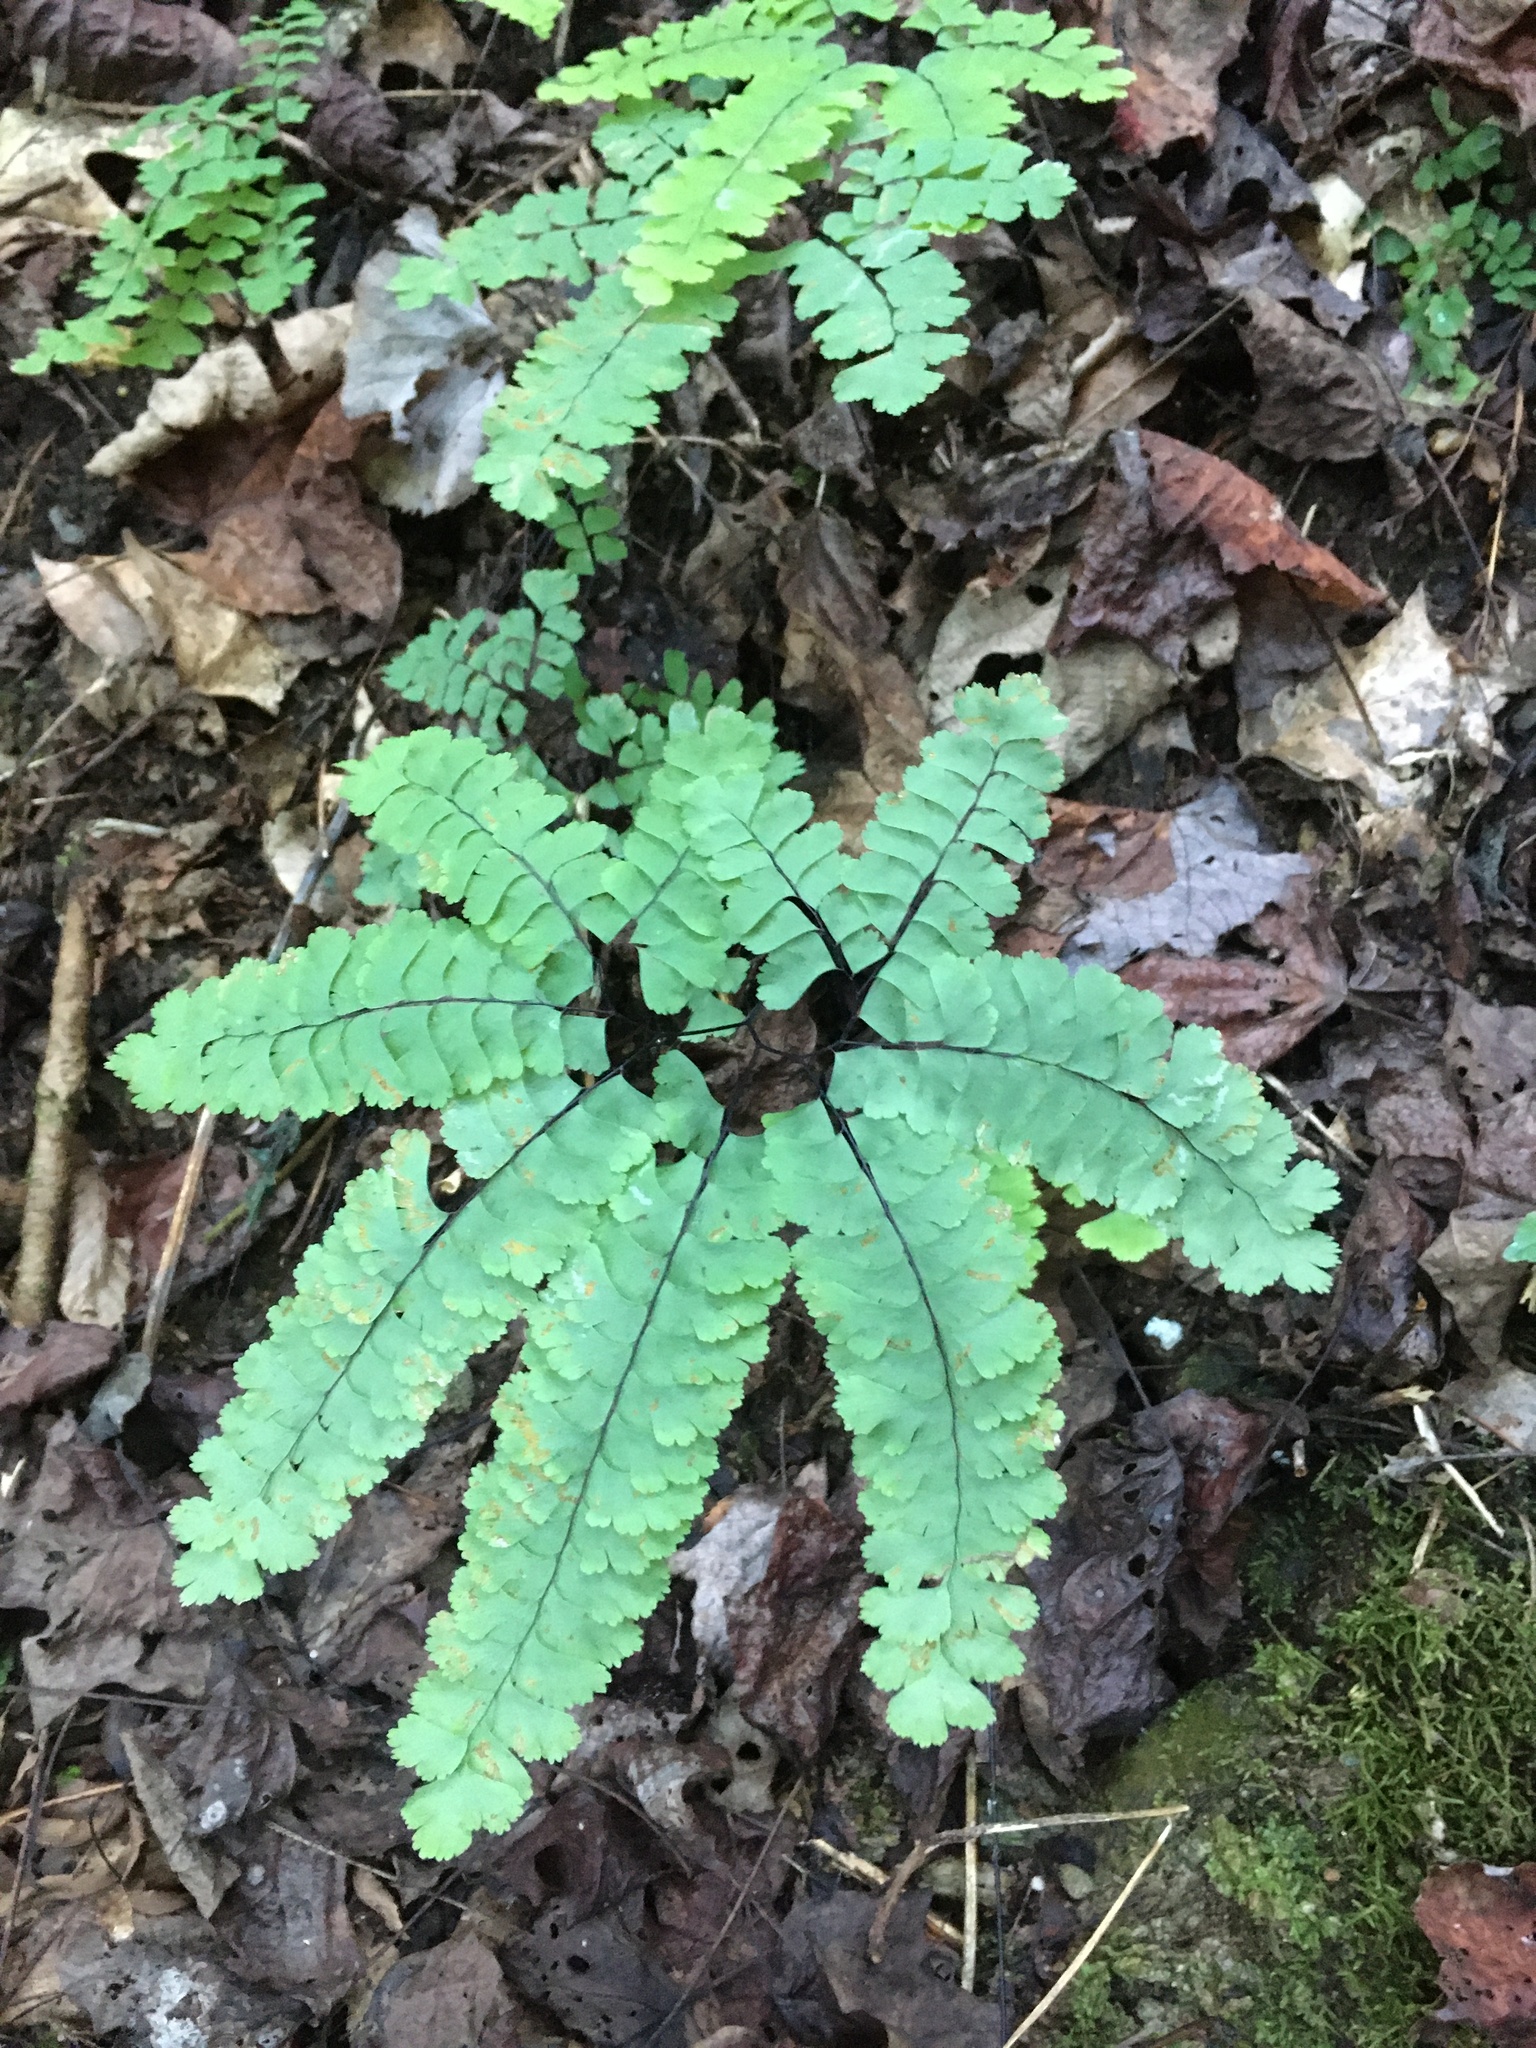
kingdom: Plantae
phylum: Tracheophyta
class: Polypodiopsida
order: Polypodiales
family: Pteridaceae
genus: Adiantum
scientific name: Adiantum pedatum
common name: Five-finger fern
